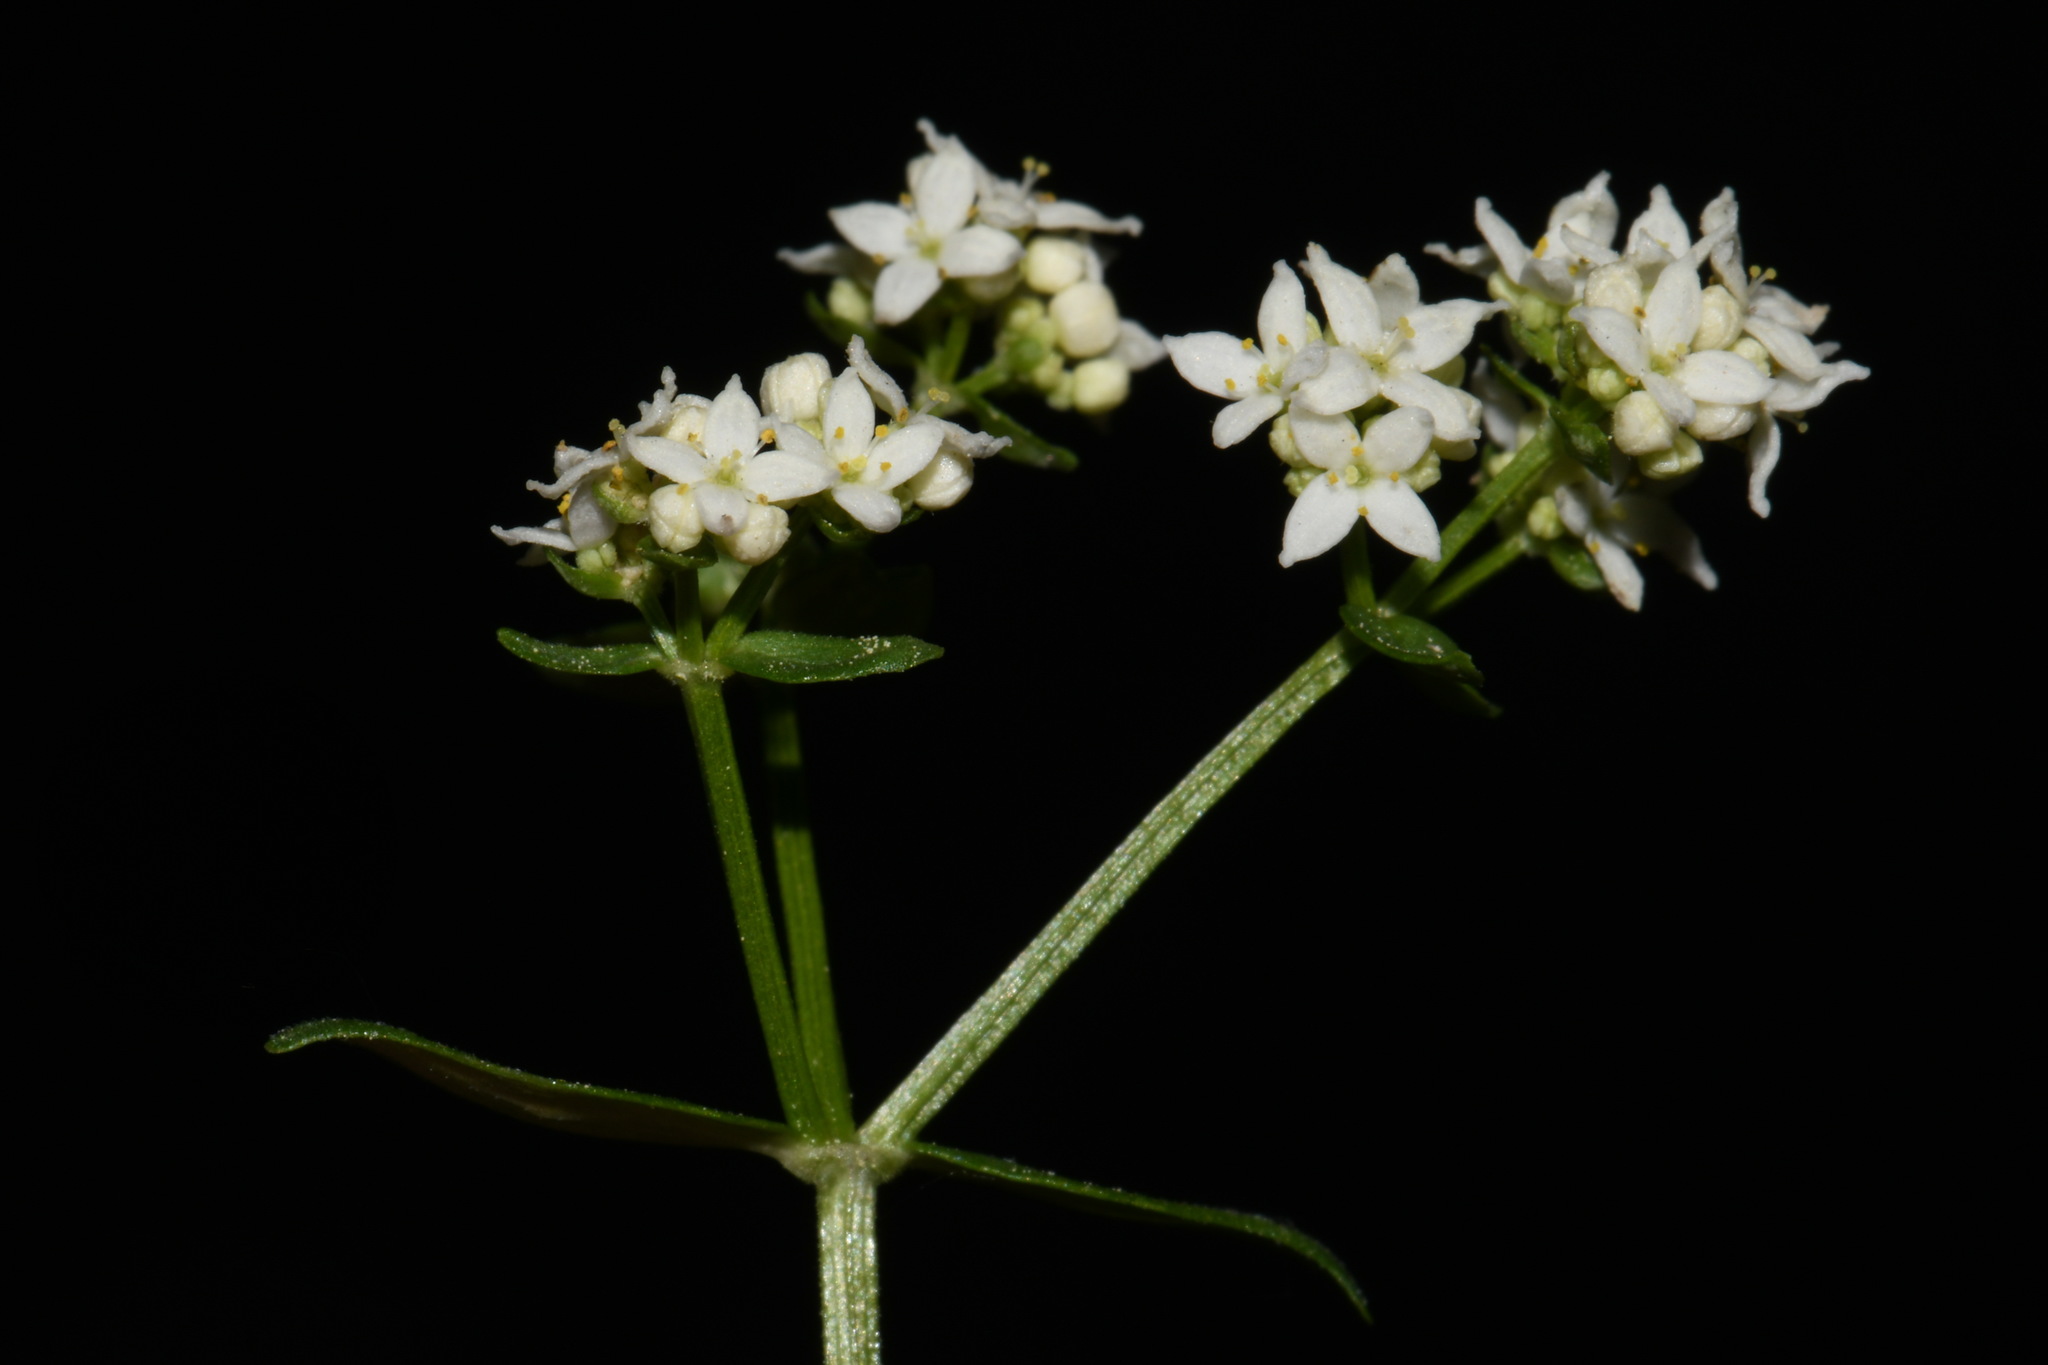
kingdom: Plantae
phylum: Tracheophyta
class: Magnoliopsida
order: Gentianales
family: Rubiaceae
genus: Galium
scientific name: Galium boreale
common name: Northern bedstraw
